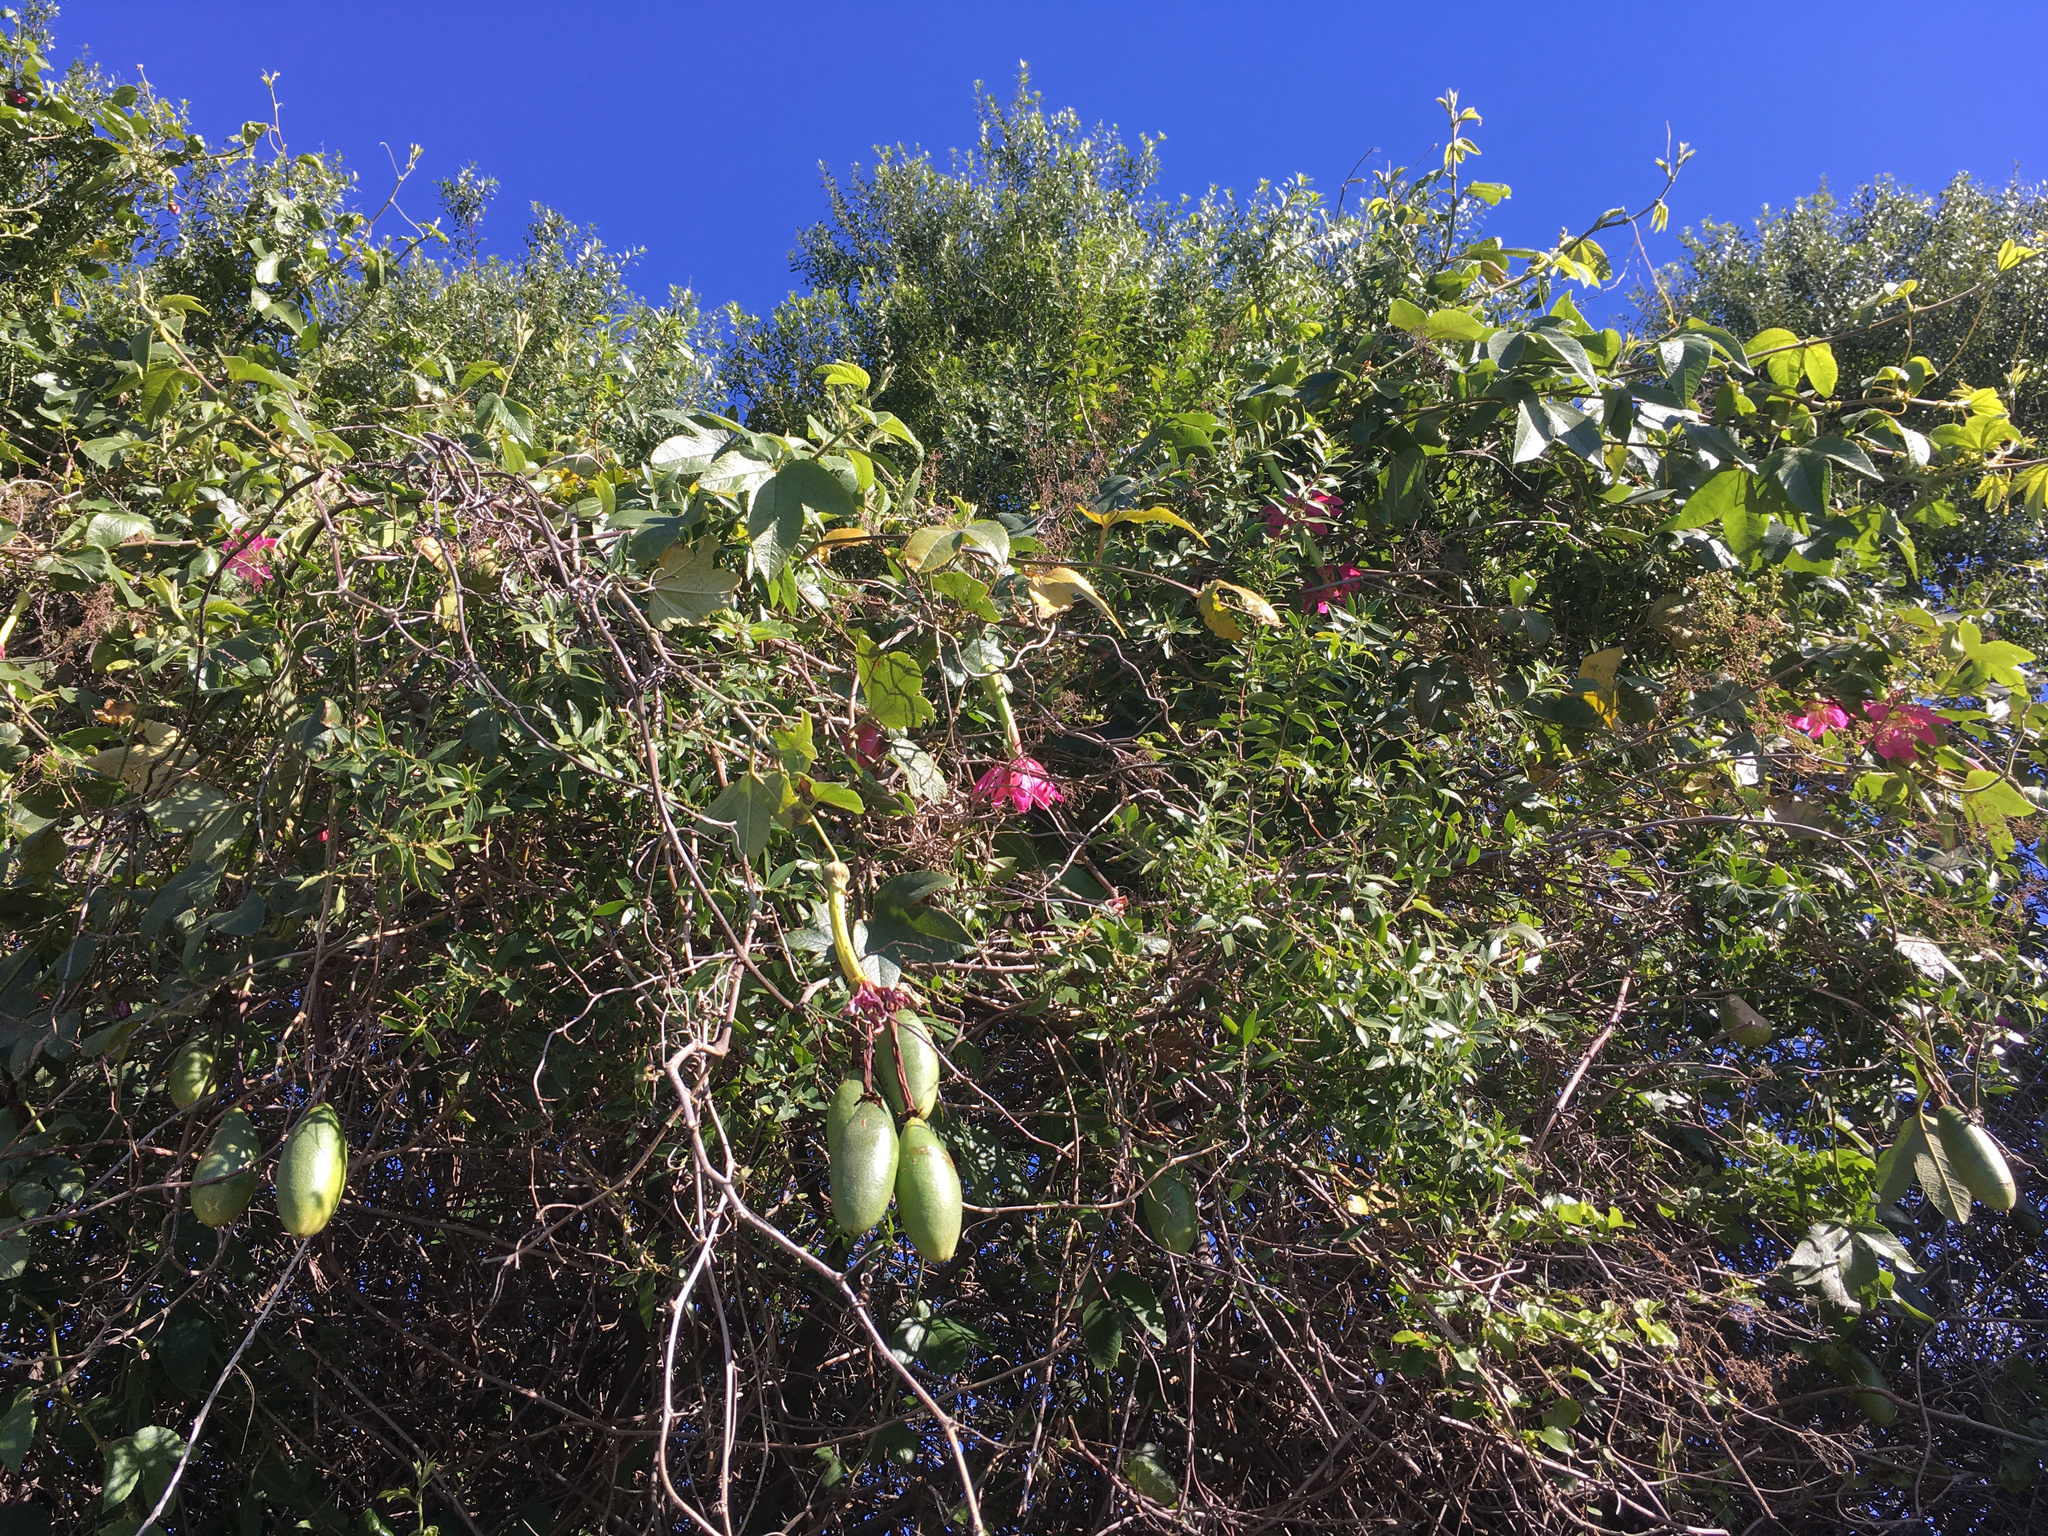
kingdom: Plantae
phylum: Tracheophyta
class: Magnoliopsida
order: Malpighiales
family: Passifloraceae
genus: Passiflora
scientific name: Passiflora tripartita
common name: Banana poka
